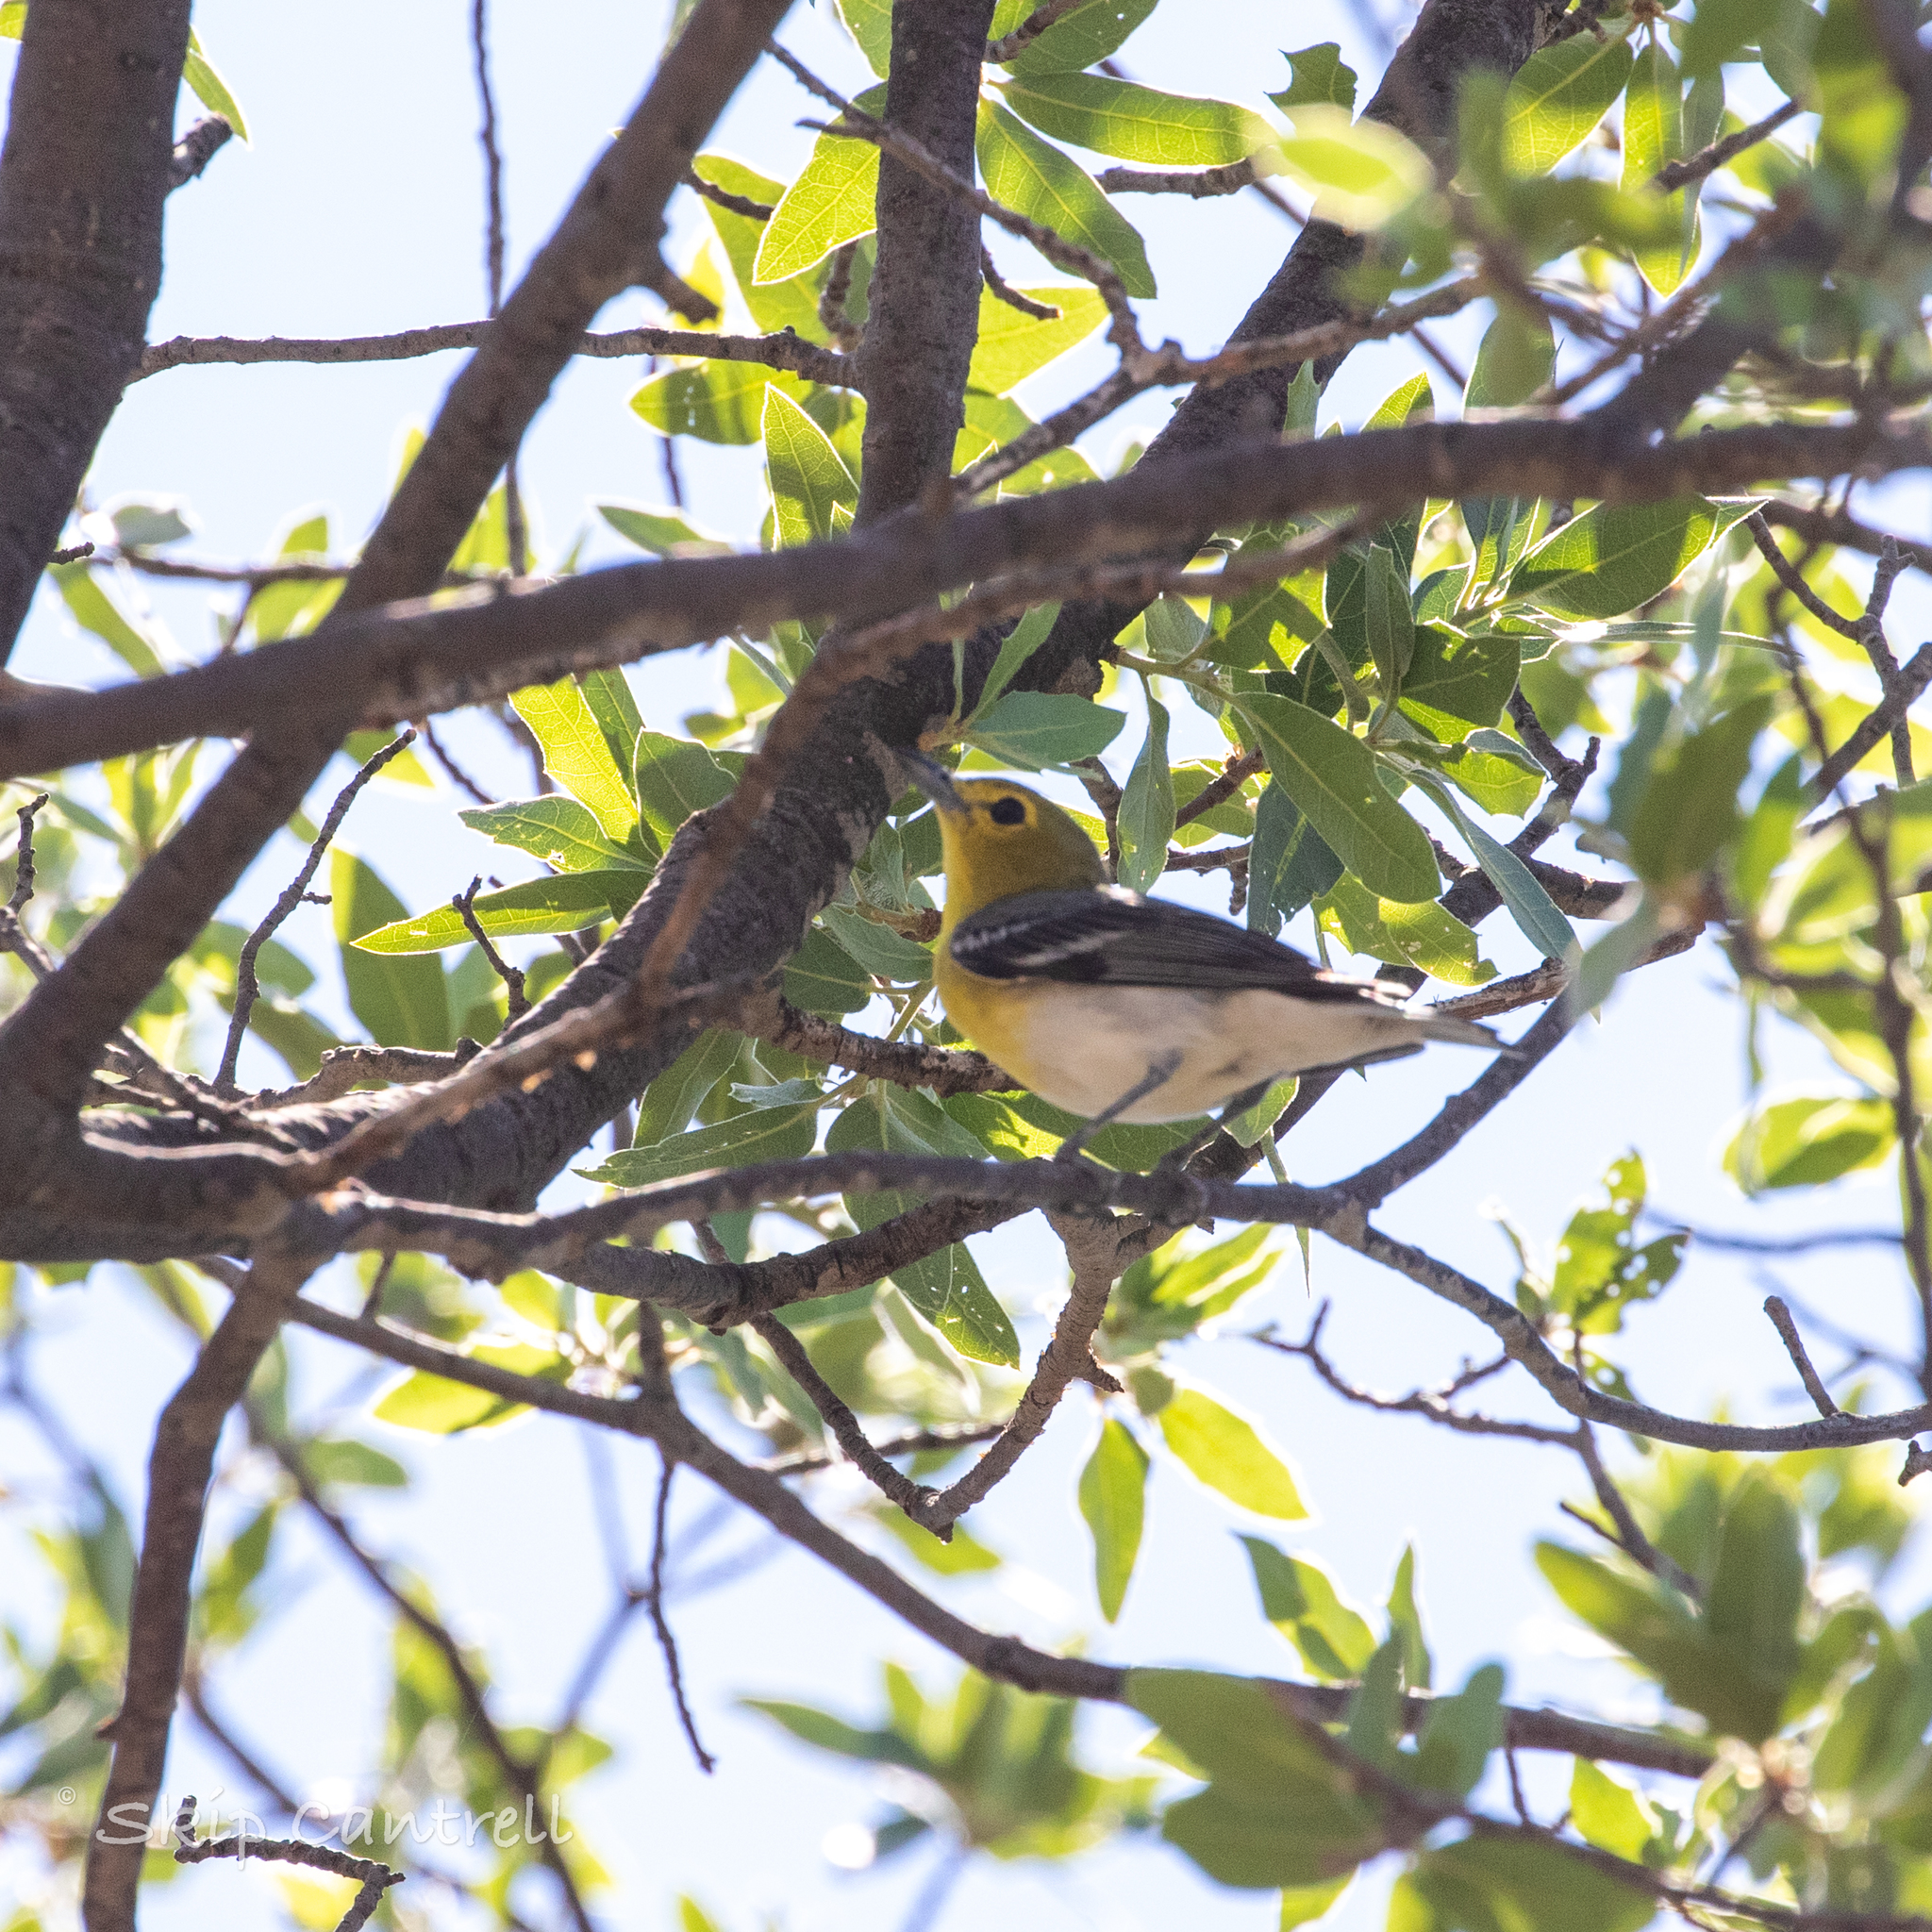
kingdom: Animalia
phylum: Chordata
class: Aves
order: Passeriformes
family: Vireonidae
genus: Vireo
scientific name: Vireo flavifrons
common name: Yellow-throated vireo
